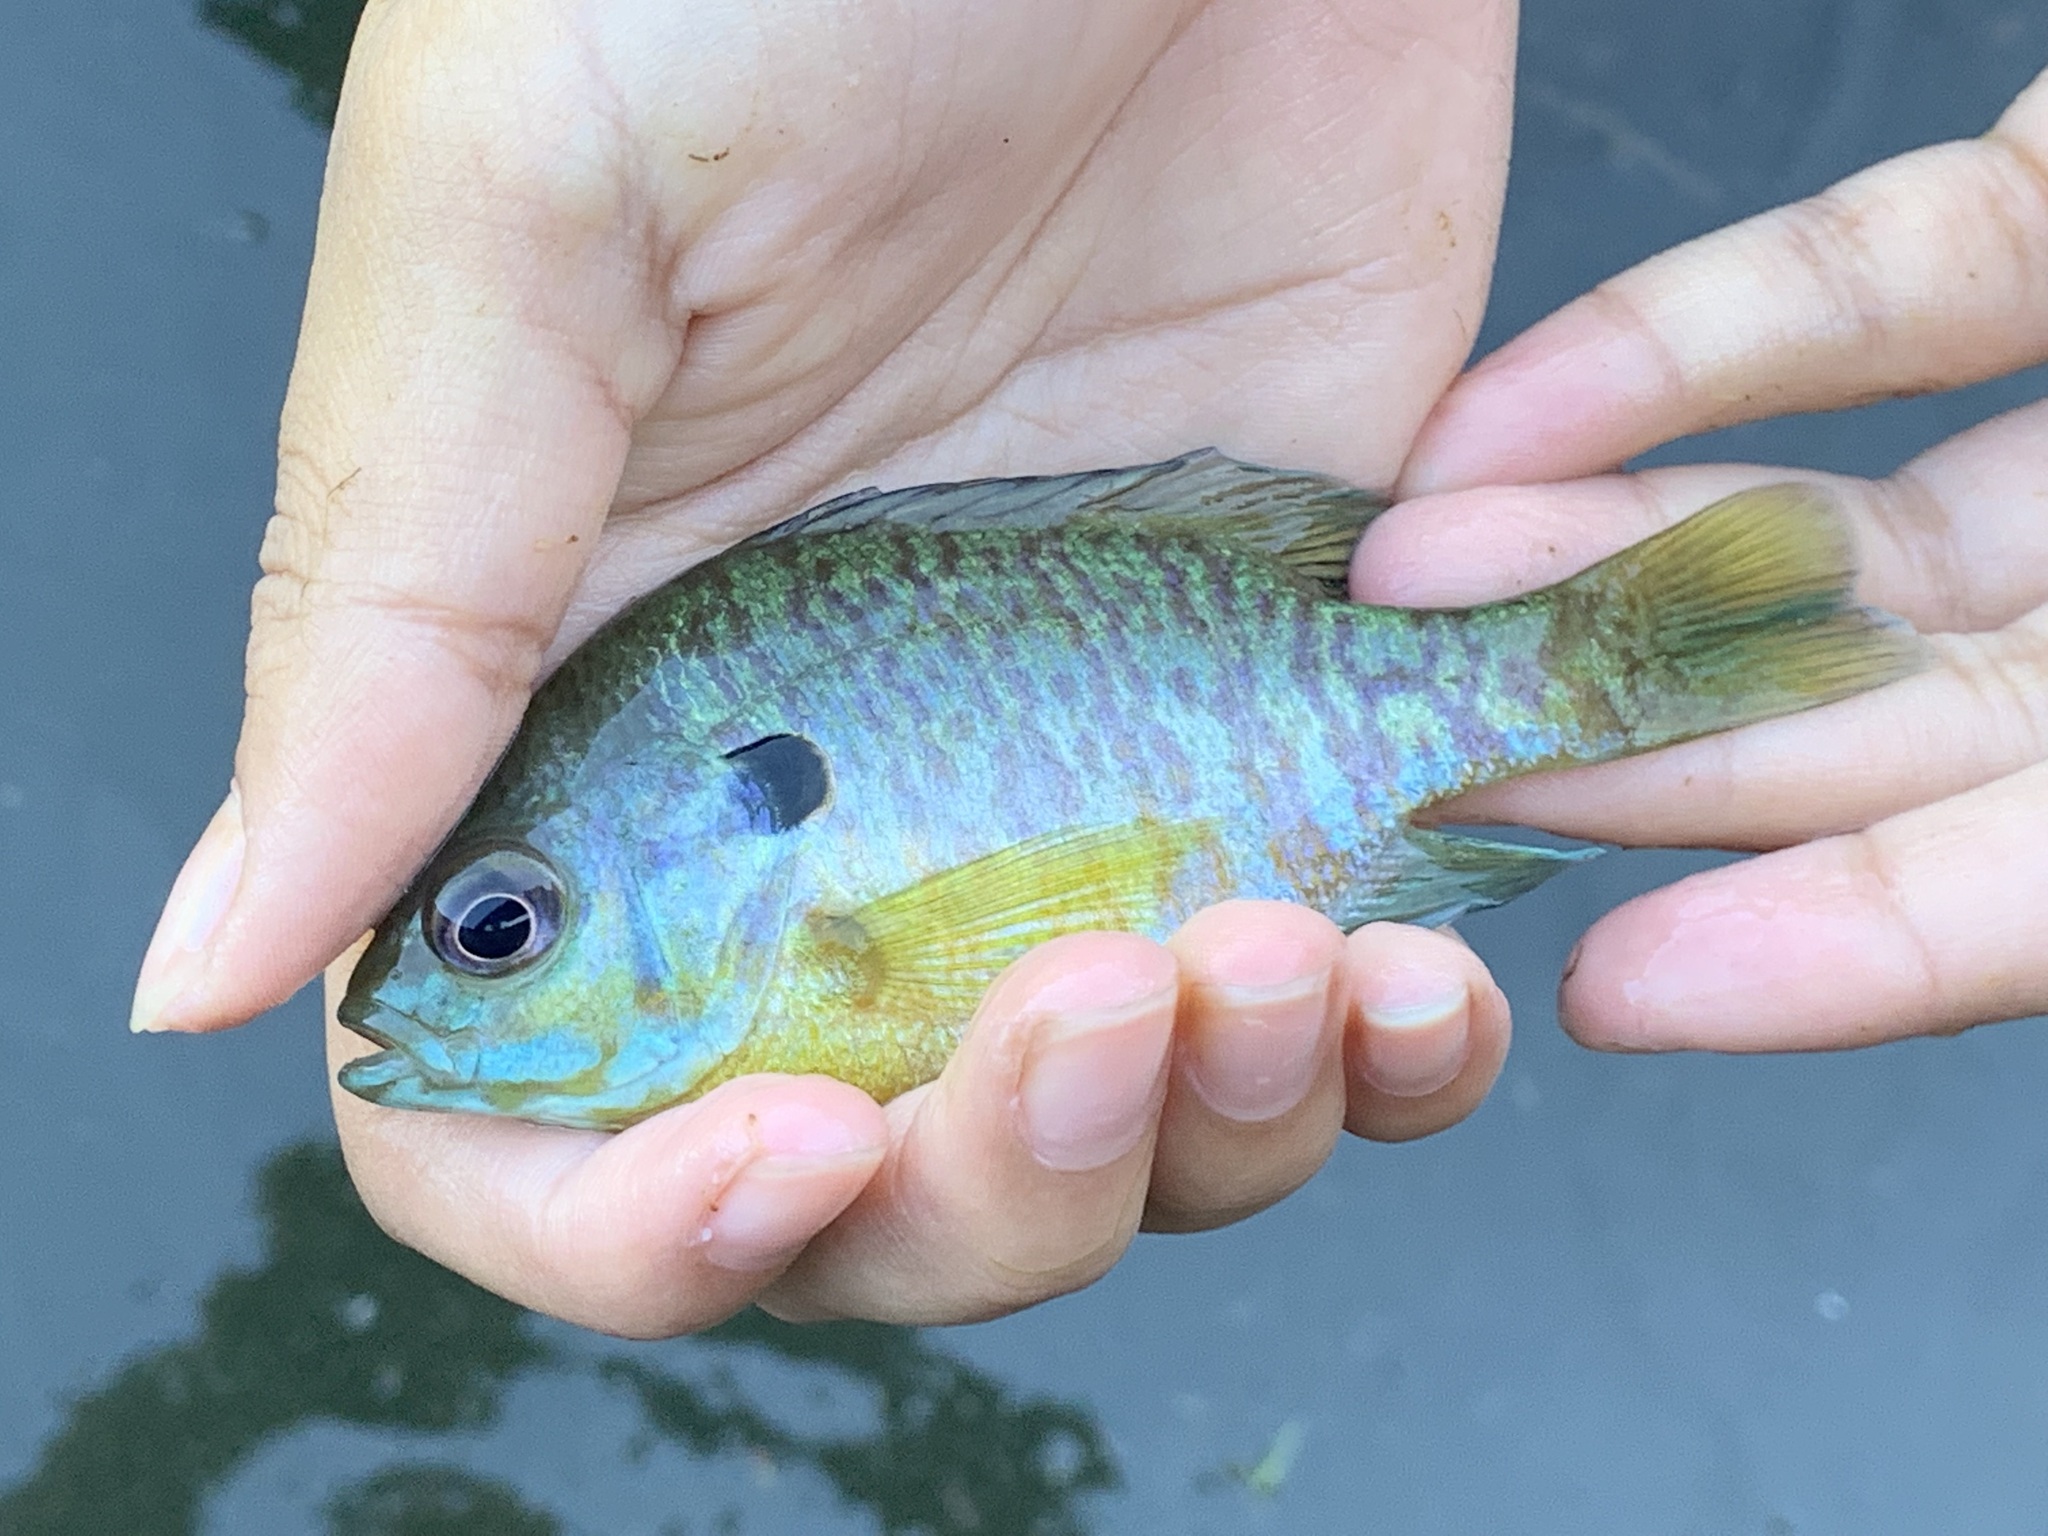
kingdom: Animalia
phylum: Chordata
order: Perciformes
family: Centrarchidae
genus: Lepomis
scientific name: Lepomis
